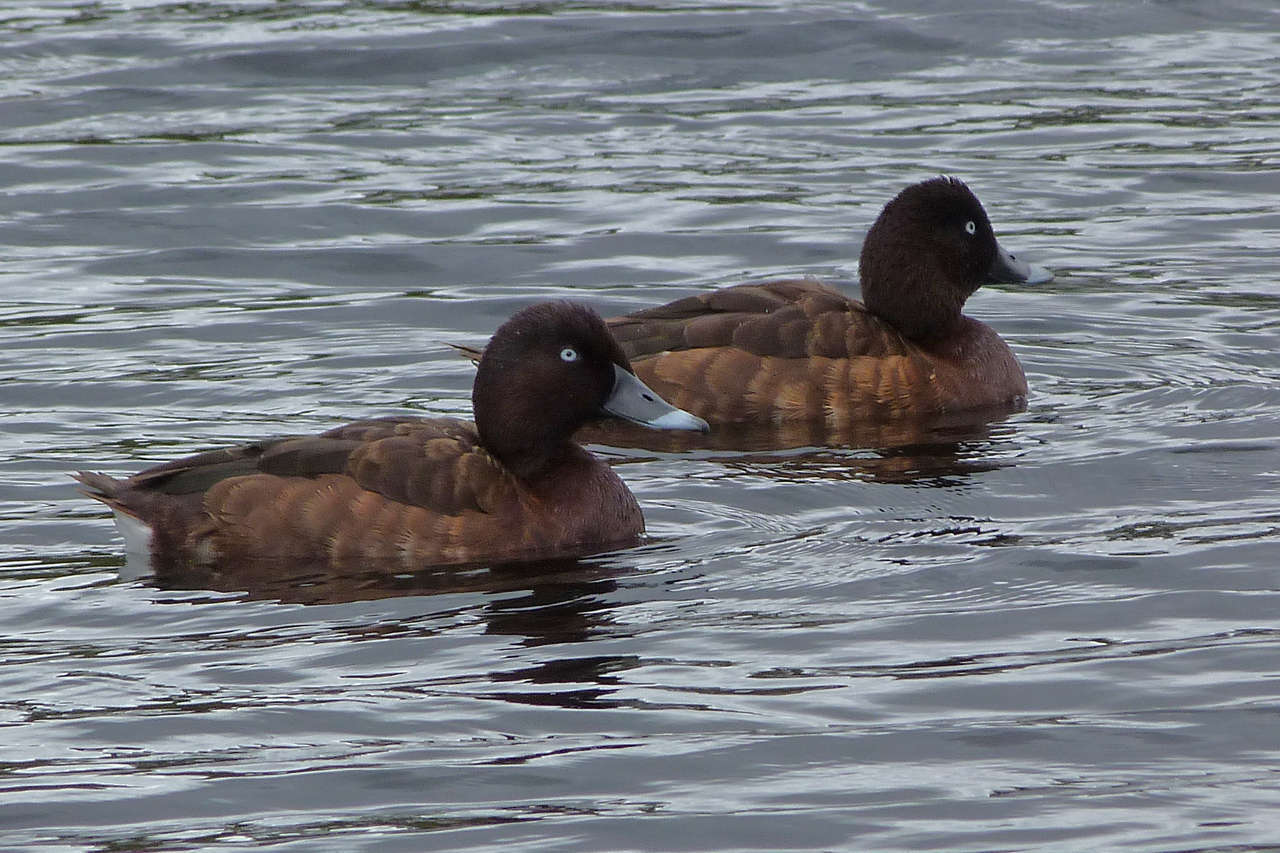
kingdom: Animalia
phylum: Chordata
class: Aves
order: Anseriformes
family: Anatidae
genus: Aythya
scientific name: Aythya australis
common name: Hardhead
